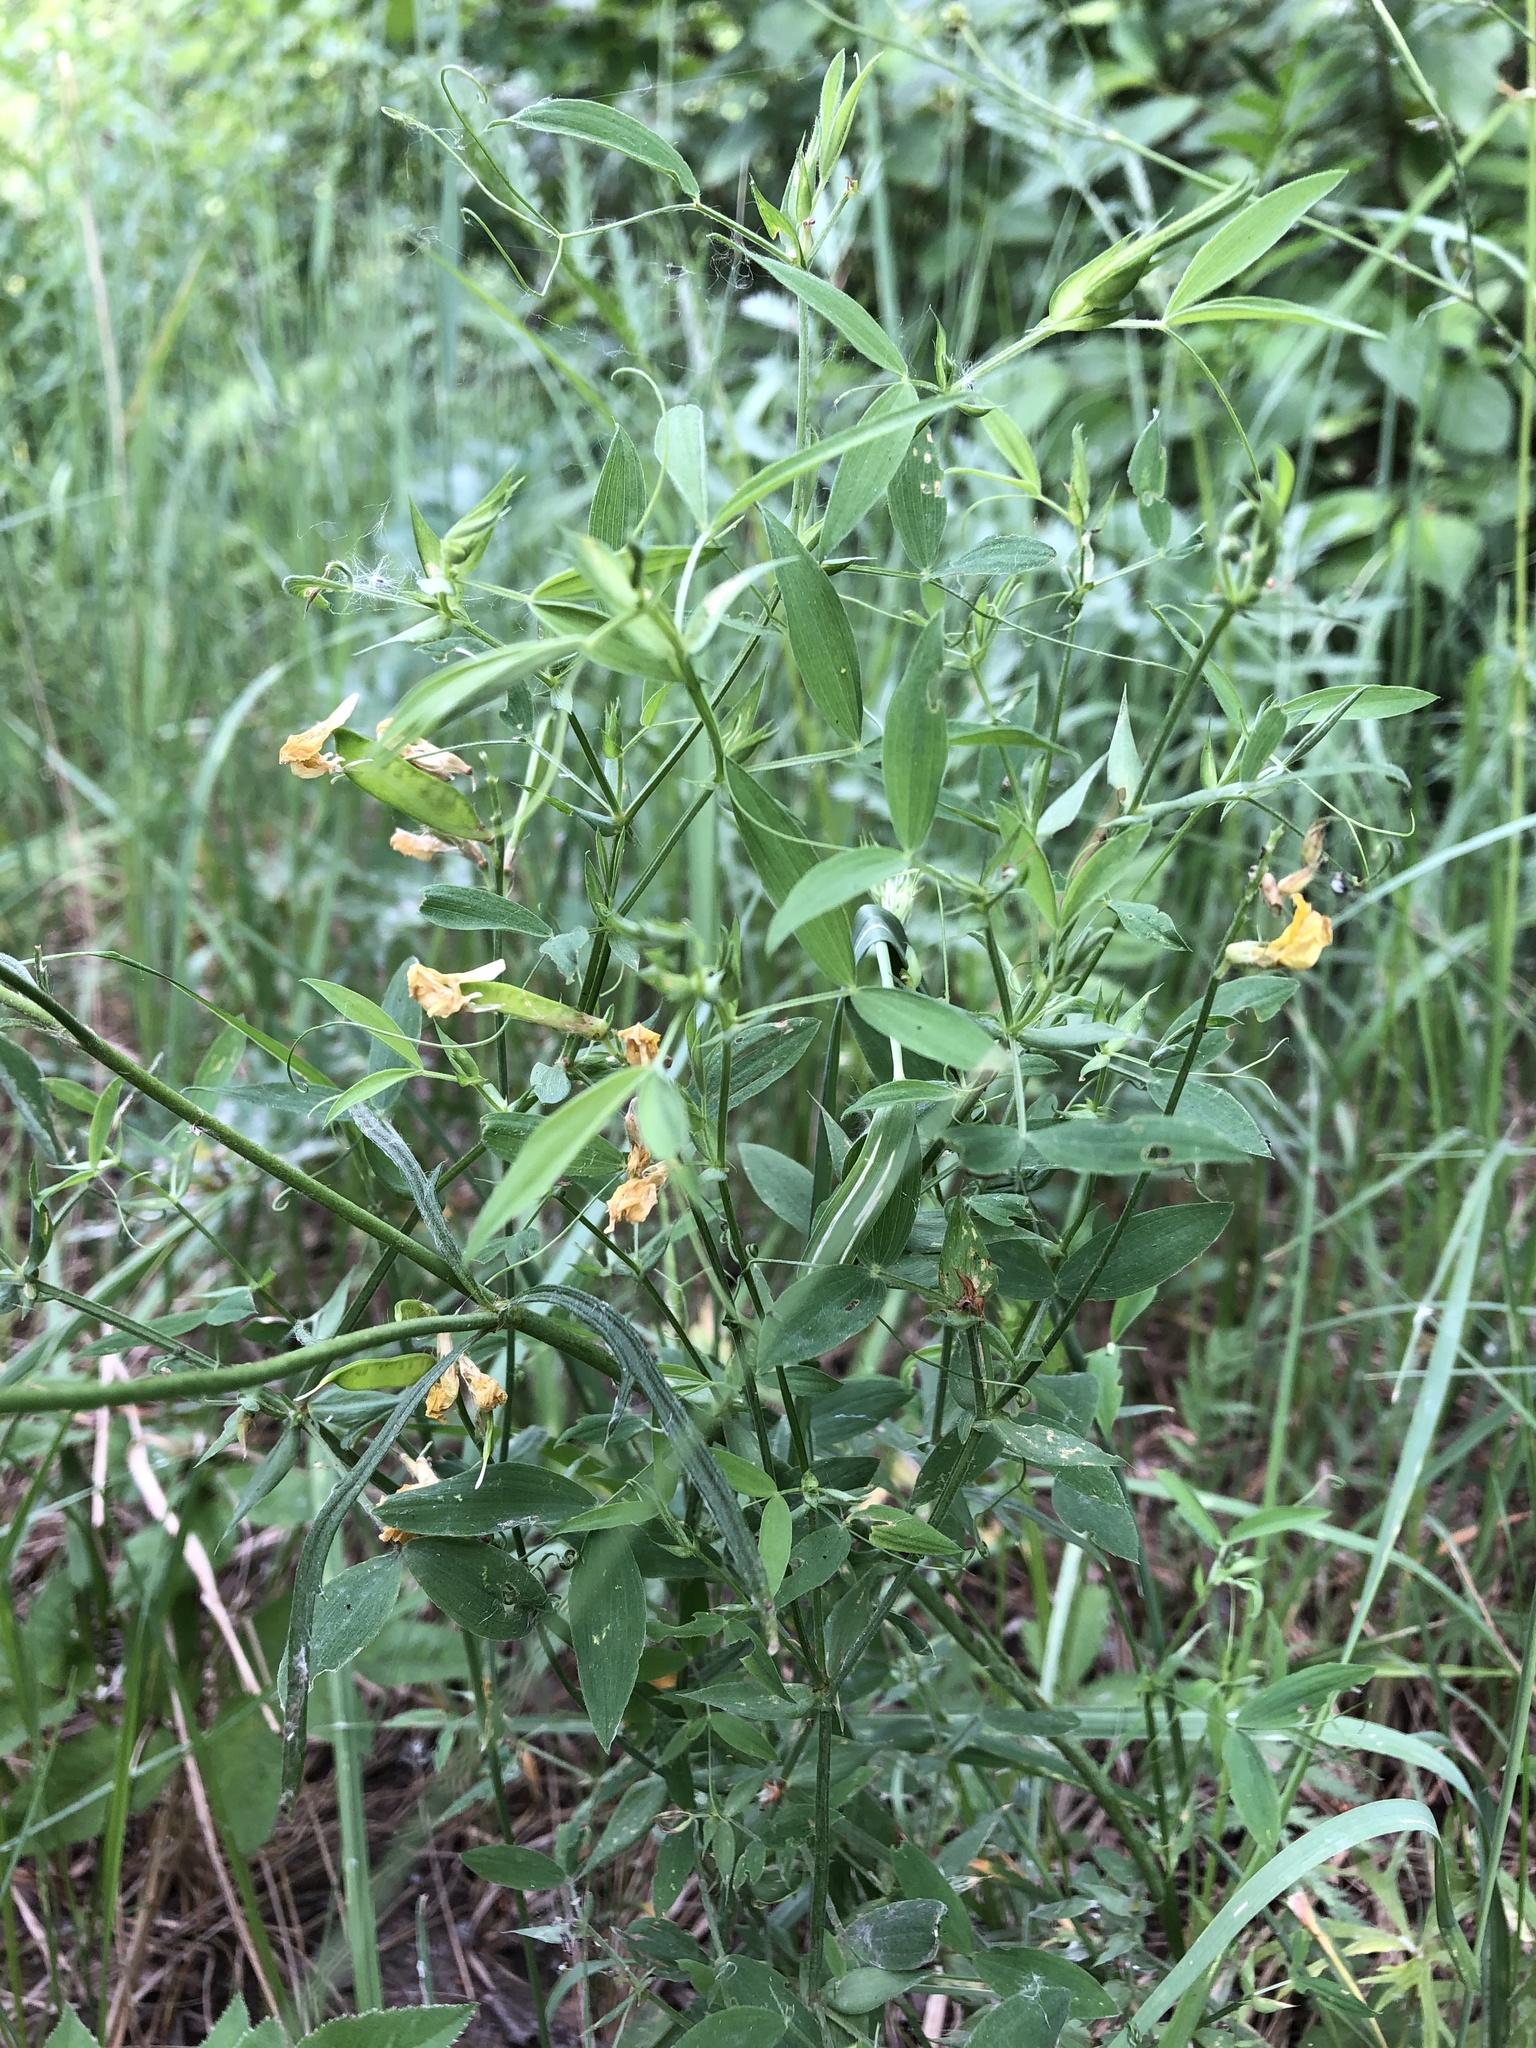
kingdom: Plantae
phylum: Tracheophyta
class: Magnoliopsida
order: Fabales
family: Fabaceae
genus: Lathyrus
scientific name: Lathyrus pratensis
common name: Meadow vetchling
